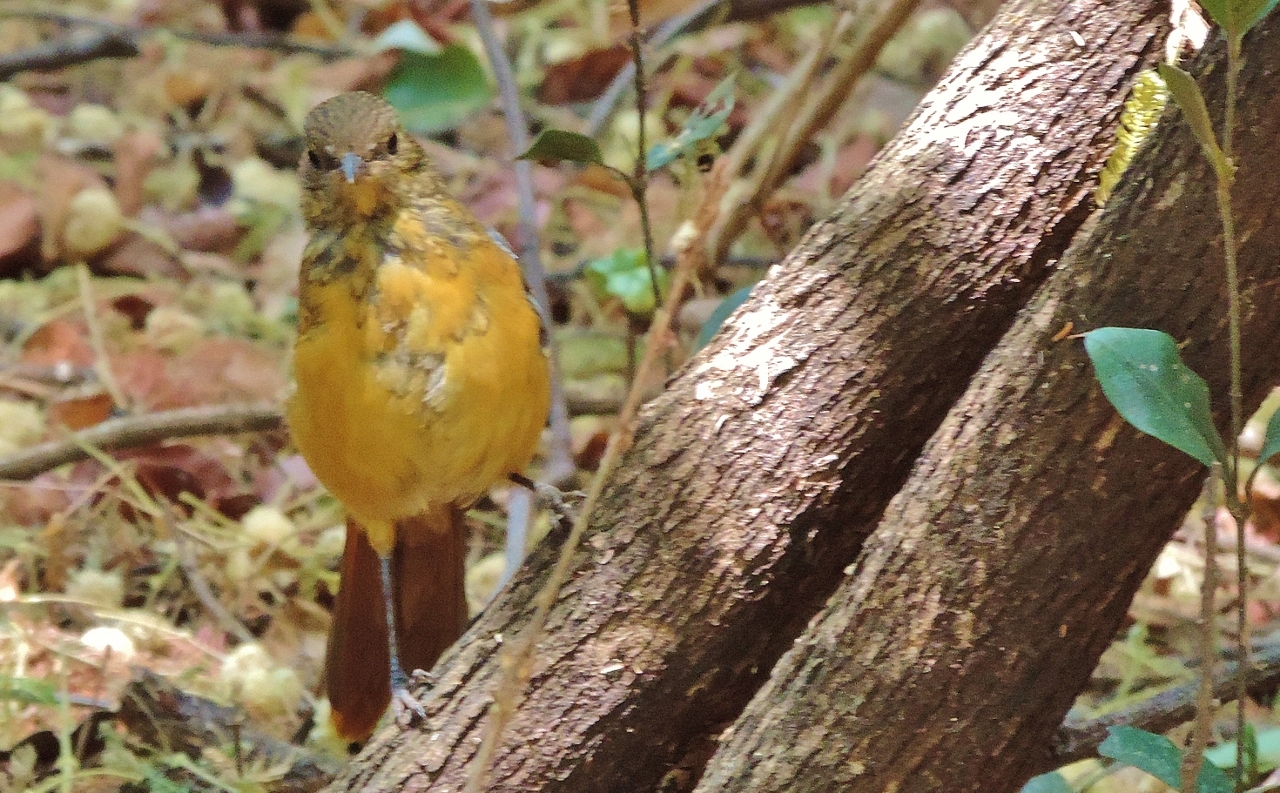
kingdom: Animalia
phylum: Chordata
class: Aves
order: Passeriformes
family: Muscicapidae
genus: Cossypha
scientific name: Cossypha heuglini
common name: White-browed robin-chat
